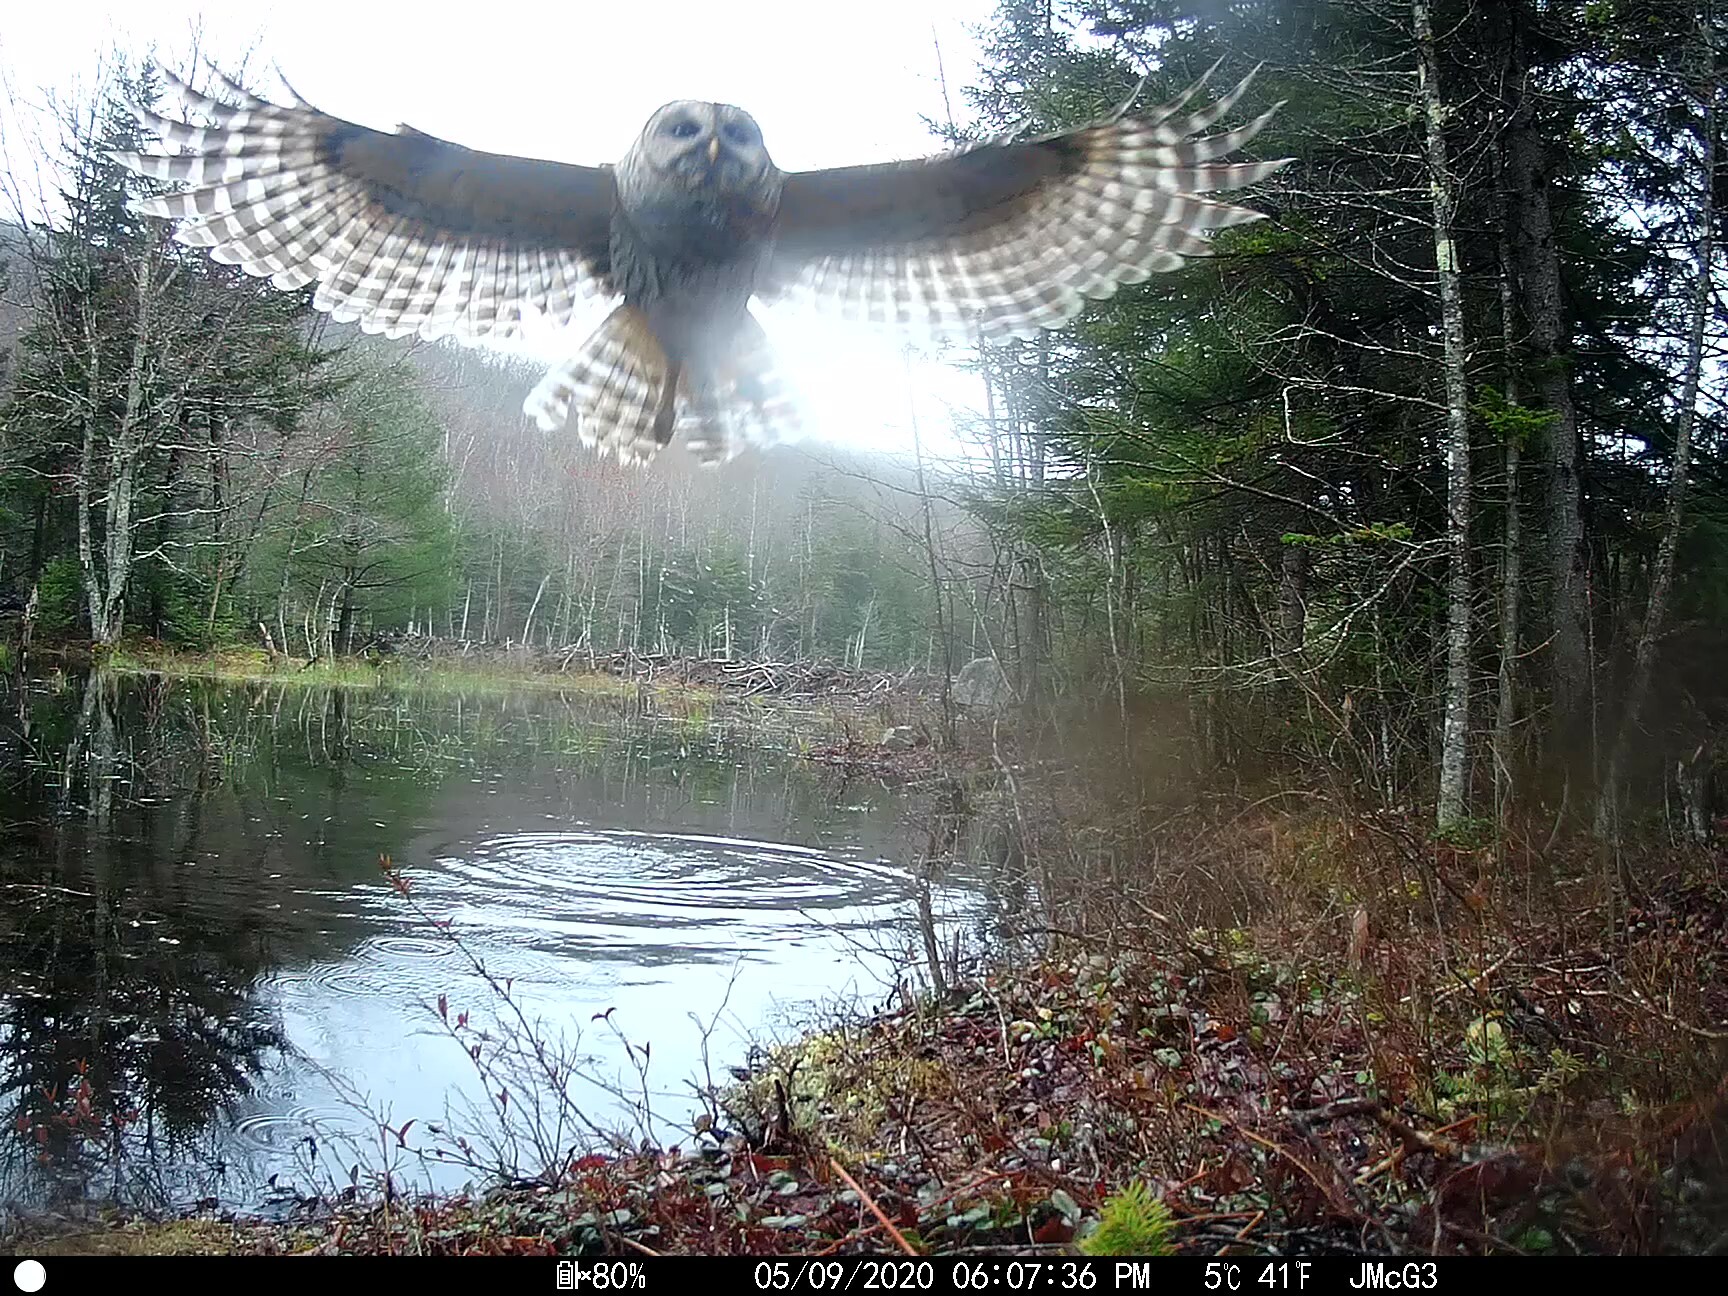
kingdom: Animalia
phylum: Chordata
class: Aves
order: Strigiformes
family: Strigidae
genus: Strix
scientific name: Strix varia
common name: Barred owl
